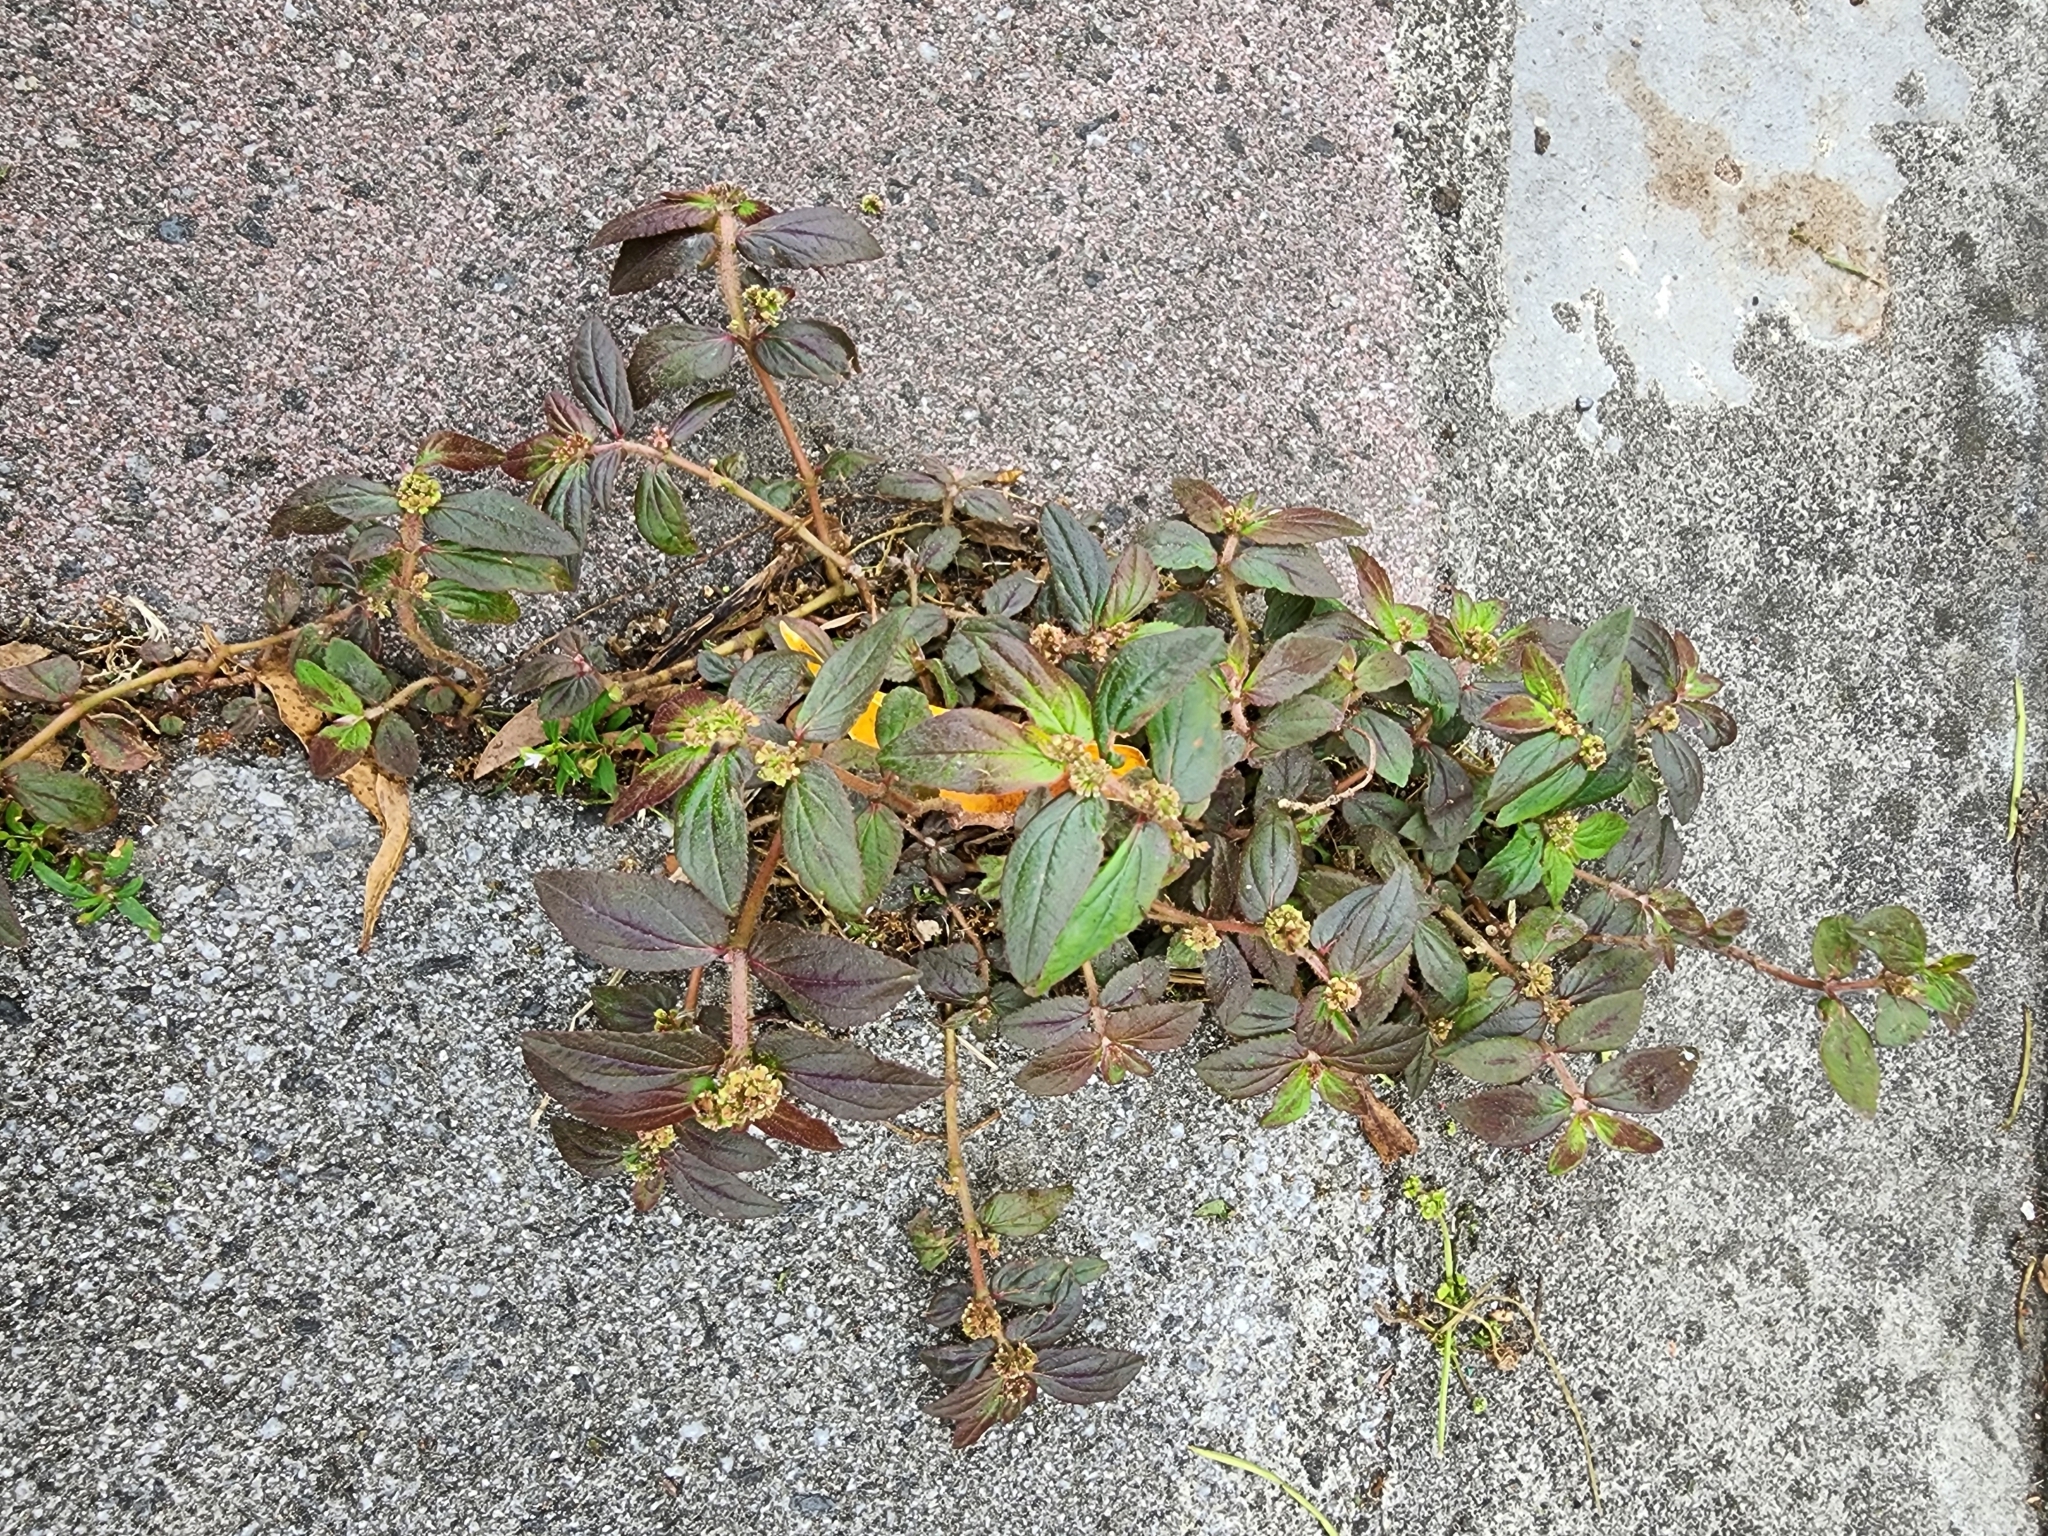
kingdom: Plantae
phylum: Tracheophyta
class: Magnoliopsida
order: Malpighiales
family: Euphorbiaceae
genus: Euphorbia
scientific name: Euphorbia hirta
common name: Pillpod sandmat
